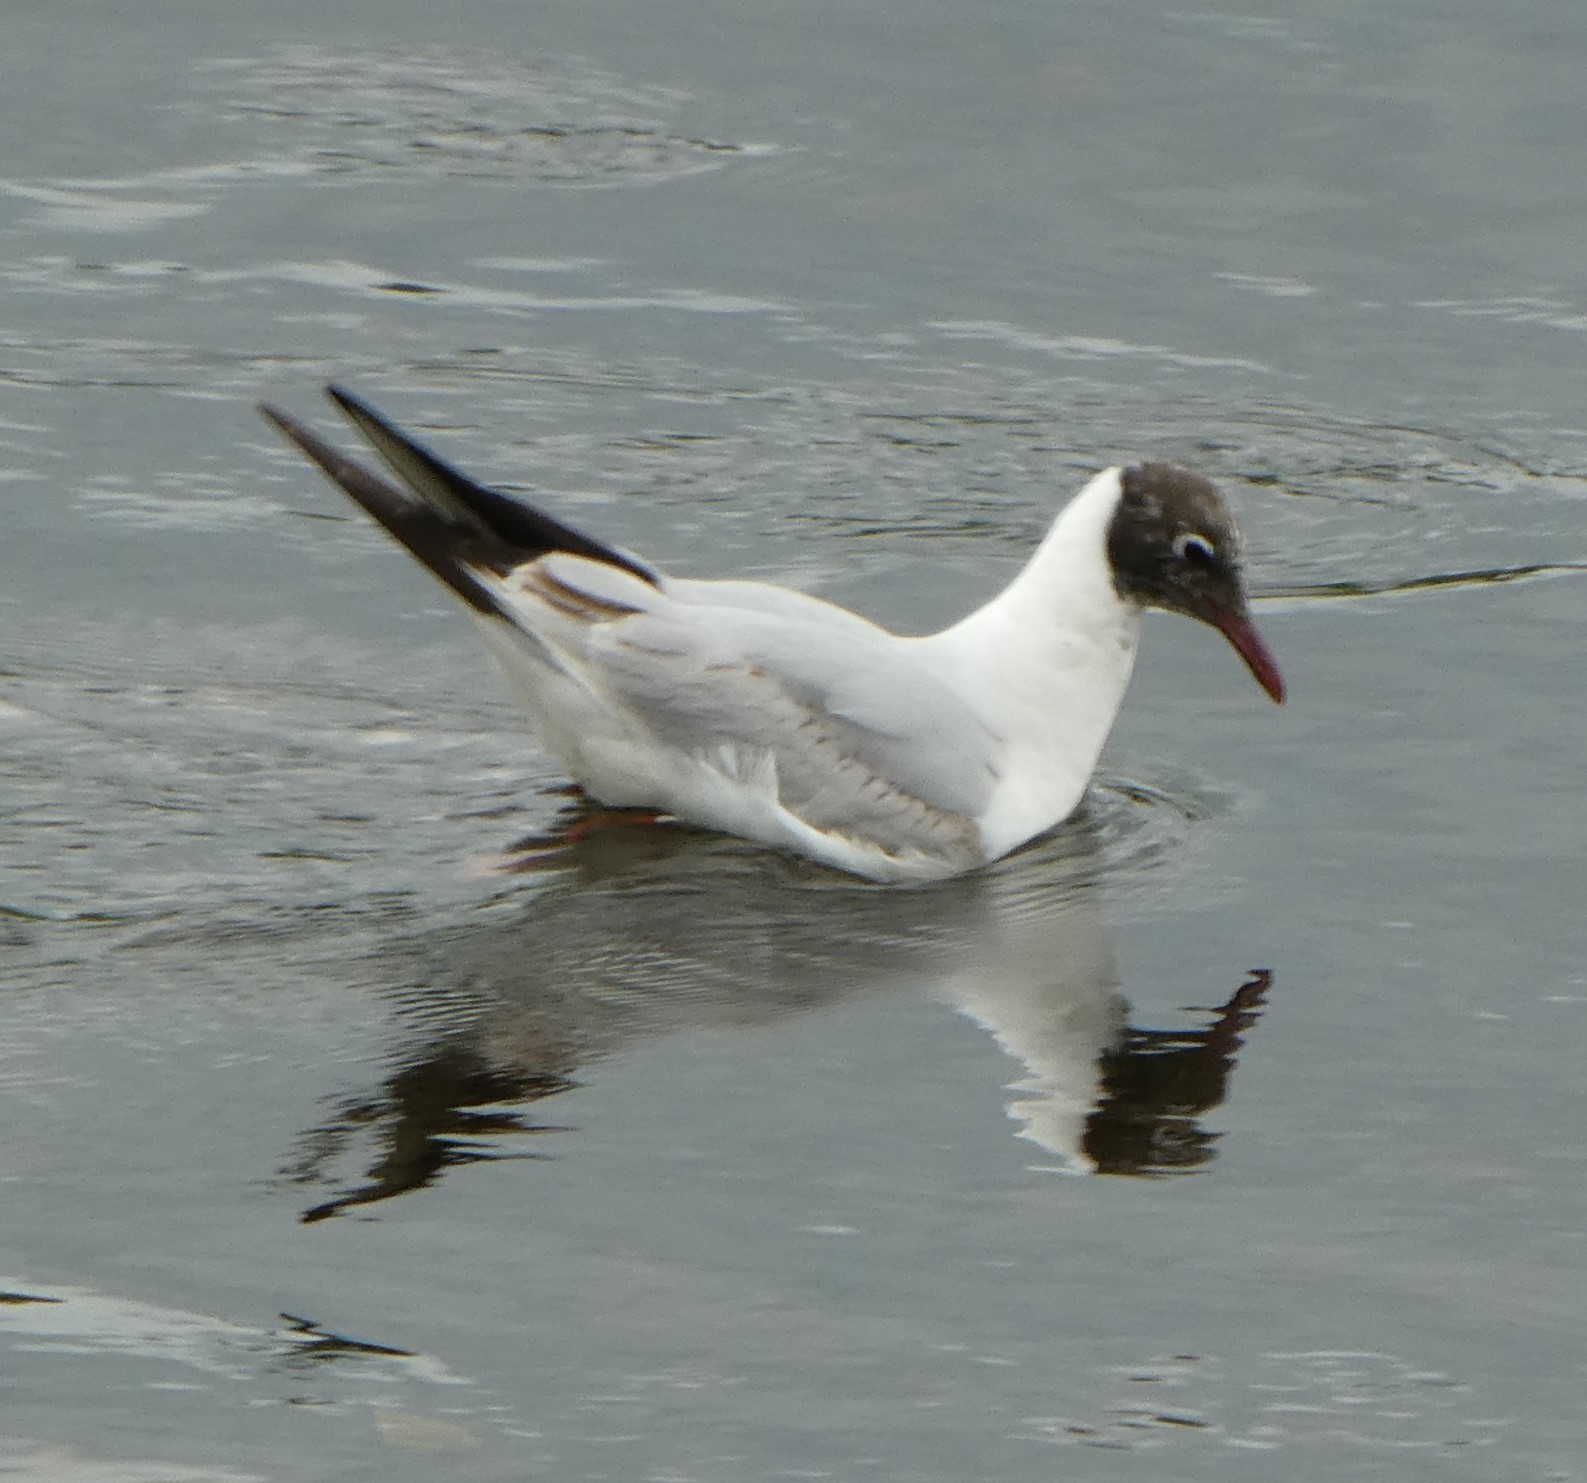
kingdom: Animalia
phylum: Chordata
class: Aves
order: Charadriiformes
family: Laridae
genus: Chroicocephalus
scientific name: Chroicocephalus ridibundus
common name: Black-headed gull
